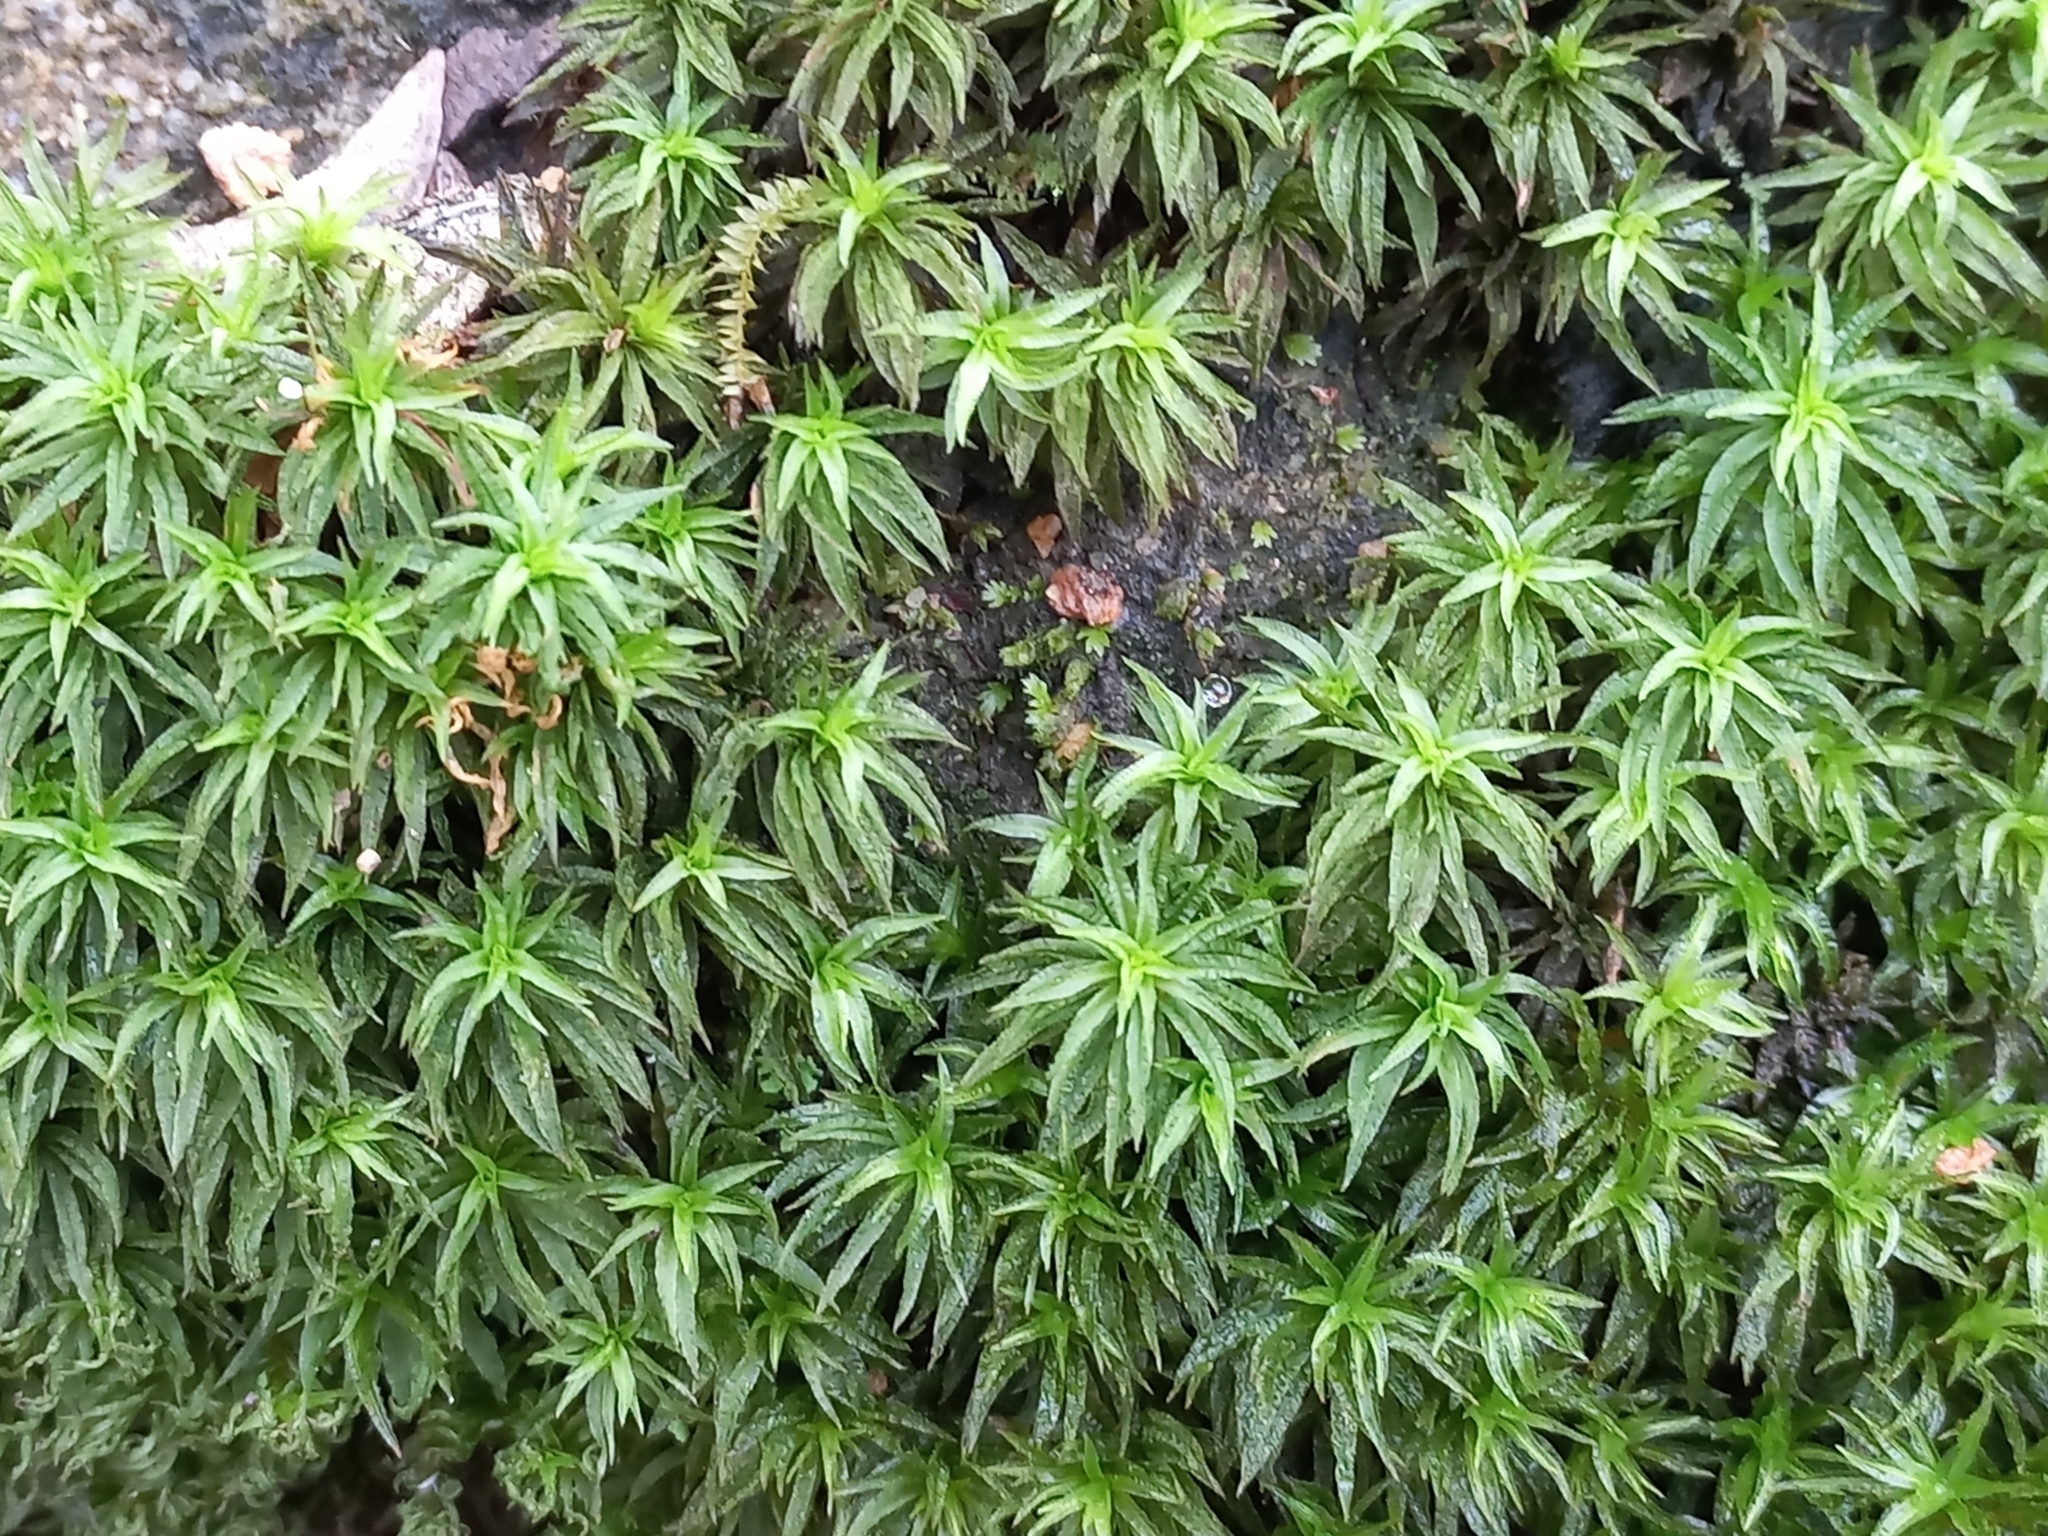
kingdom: Plantae
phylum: Bryophyta
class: Polytrichopsida
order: Polytrichales
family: Polytrichaceae
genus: Atrichum
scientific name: Atrichum androgynum
